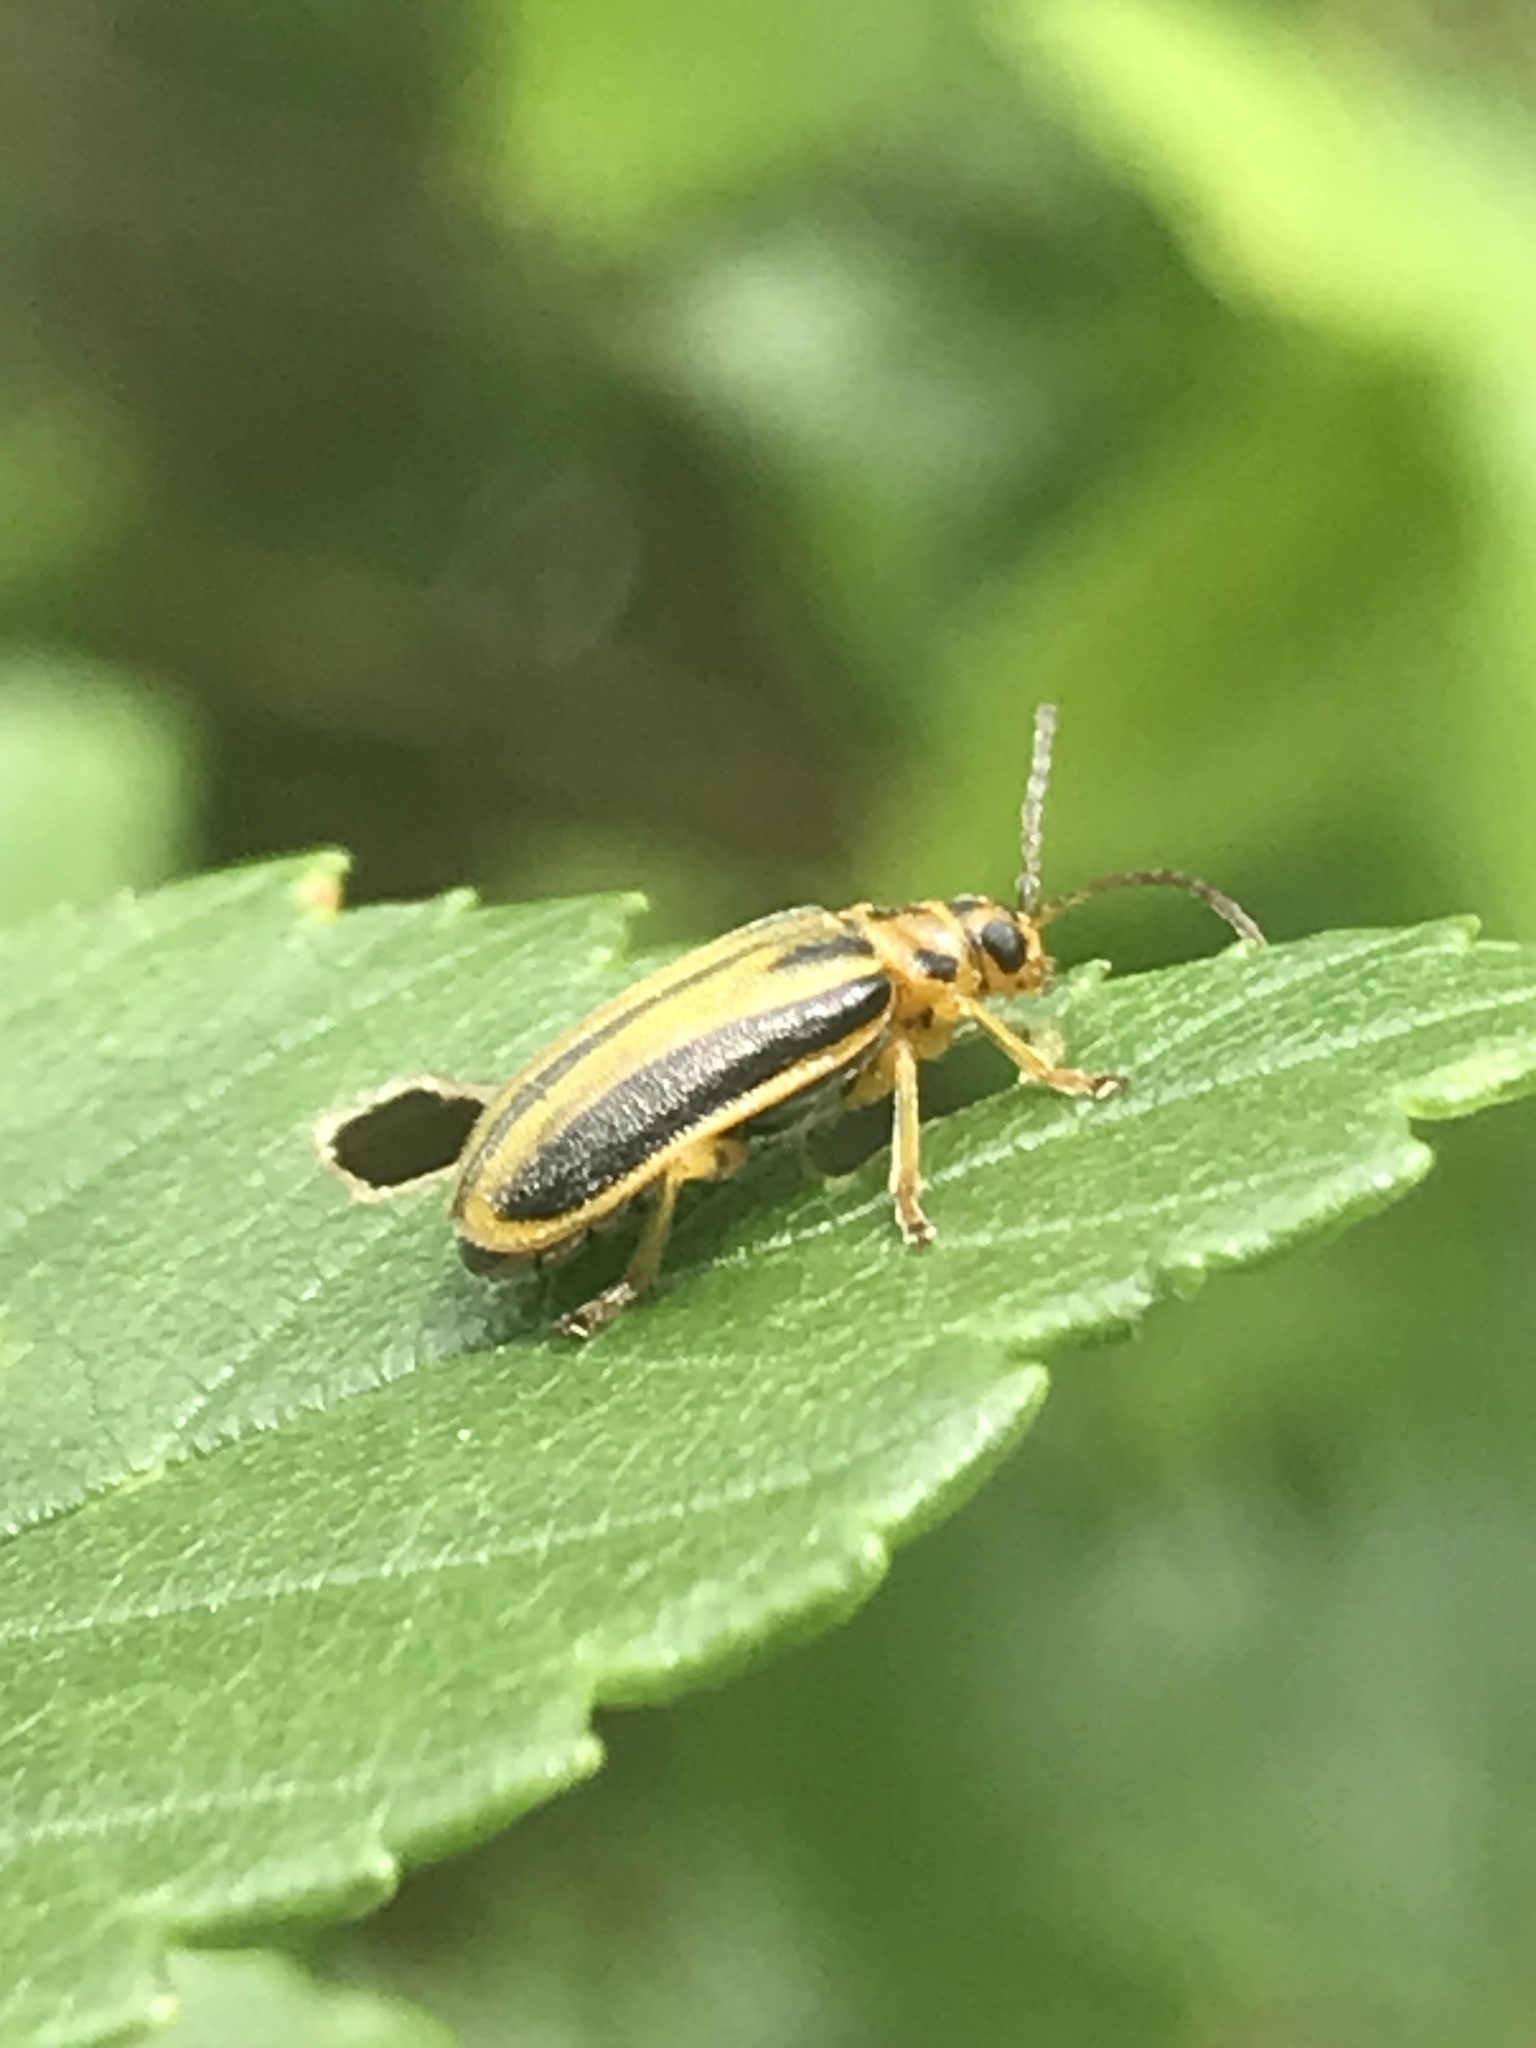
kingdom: Animalia
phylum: Arthropoda
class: Insecta
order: Coleoptera
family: Chrysomelidae
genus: Xanthogaleruca
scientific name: Xanthogaleruca luteola
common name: Elm leaf beetle
